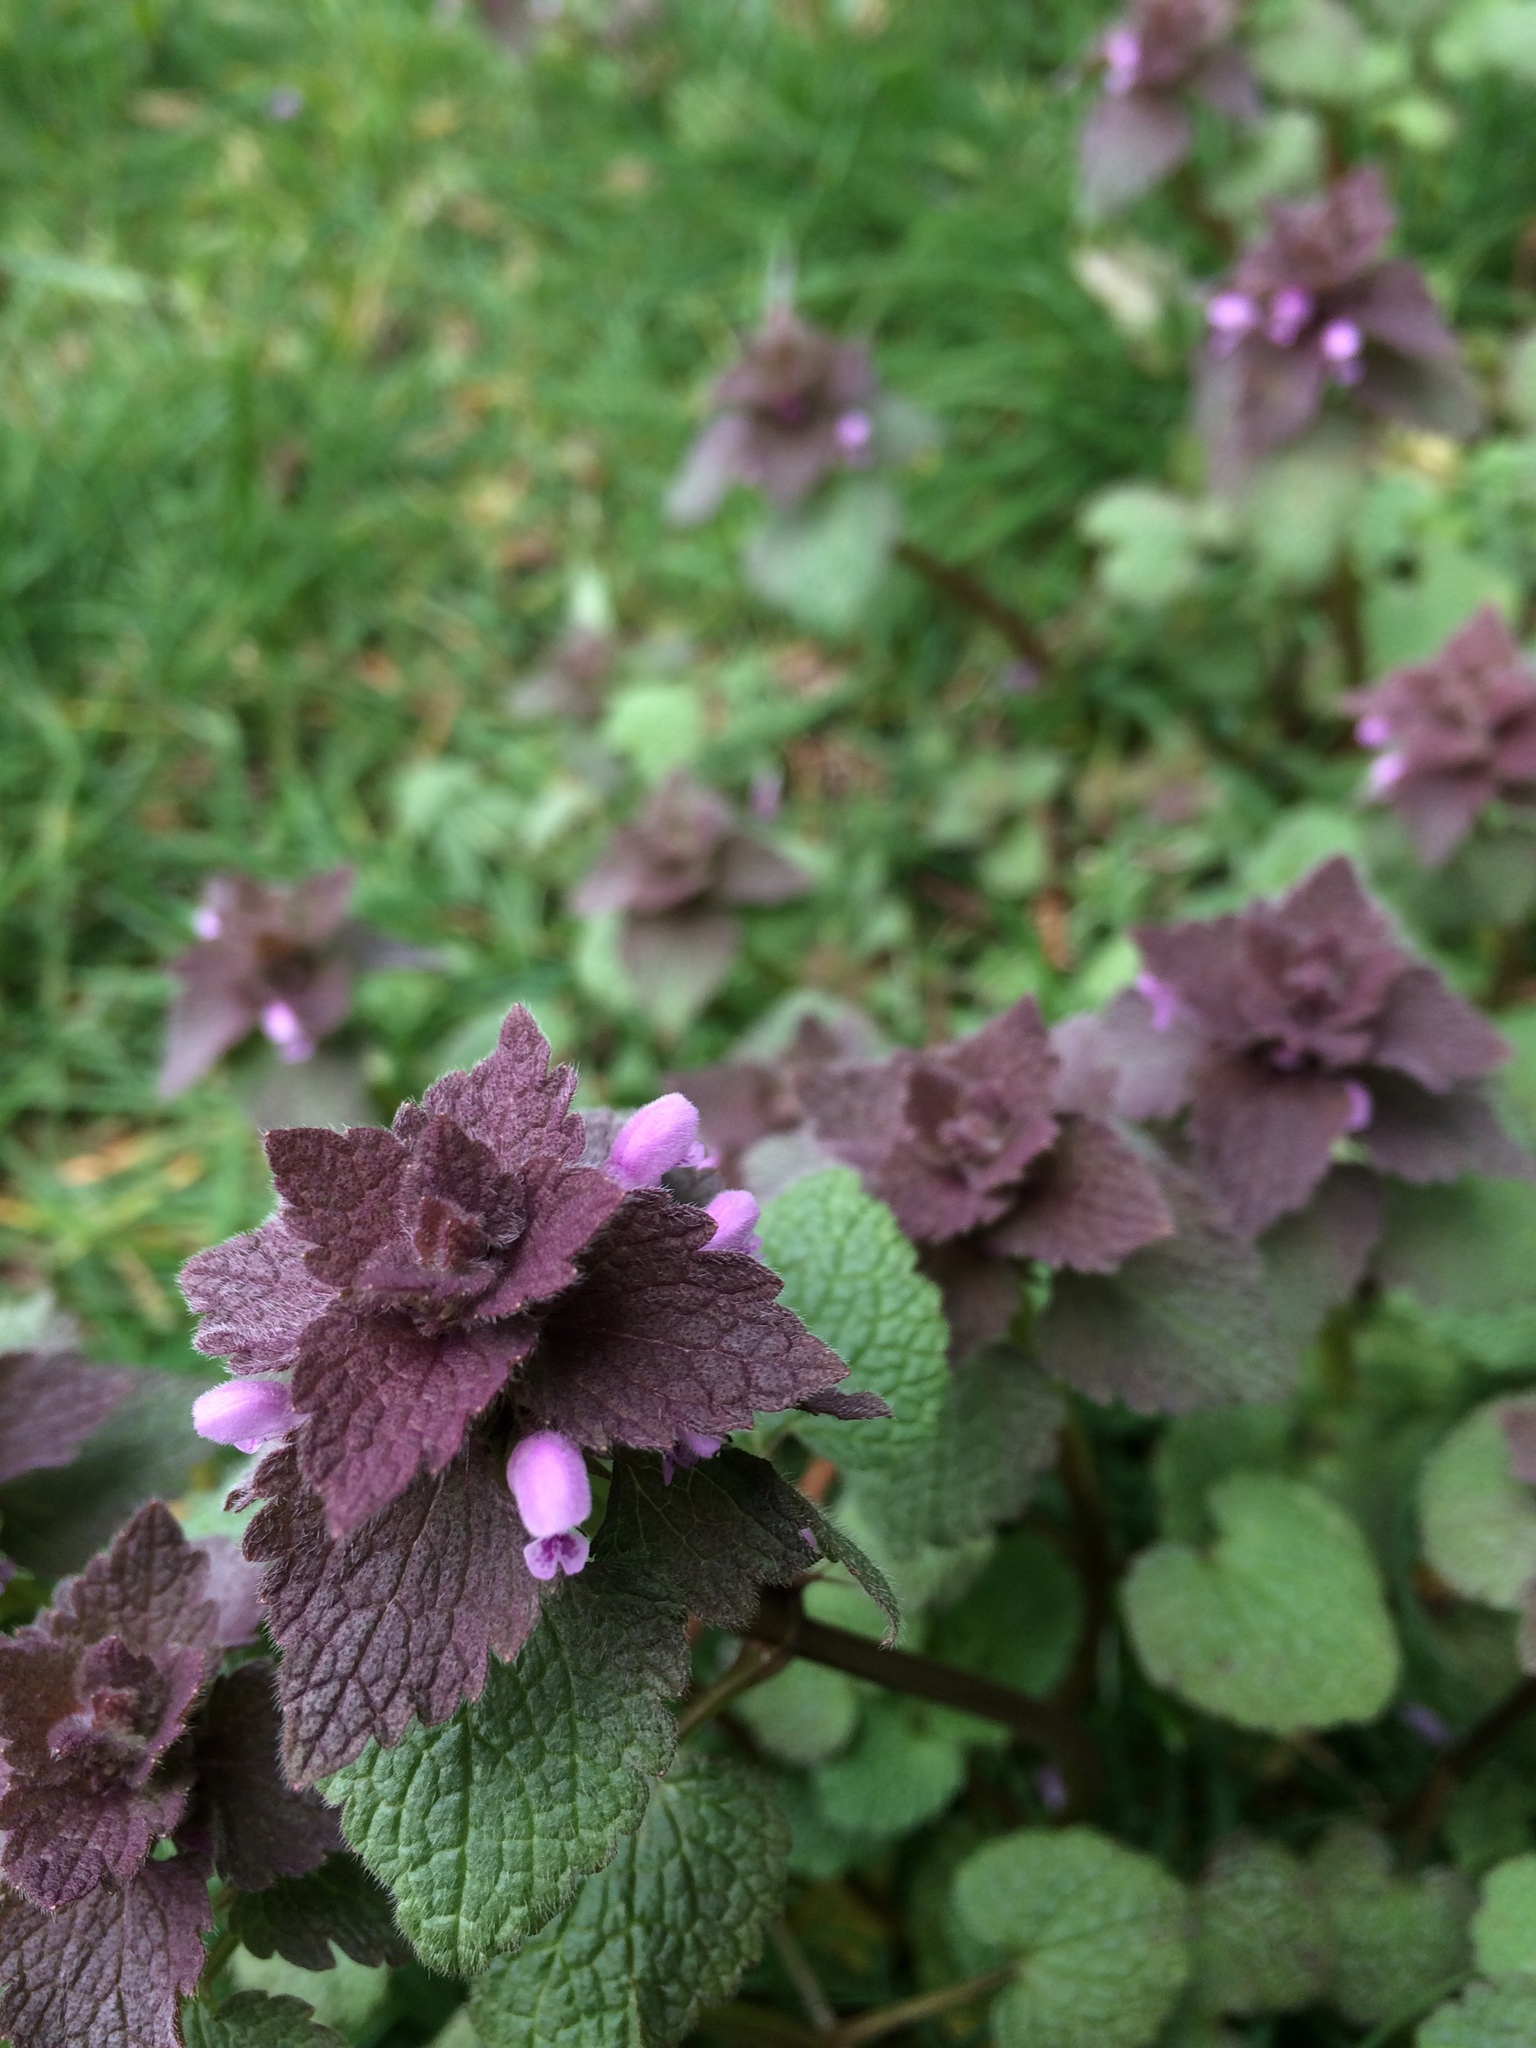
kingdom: Plantae
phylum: Tracheophyta
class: Magnoliopsida
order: Lamiales
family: Lamiaceae
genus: Lamium
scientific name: Lamium purpureum
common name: Red dead-nettle
